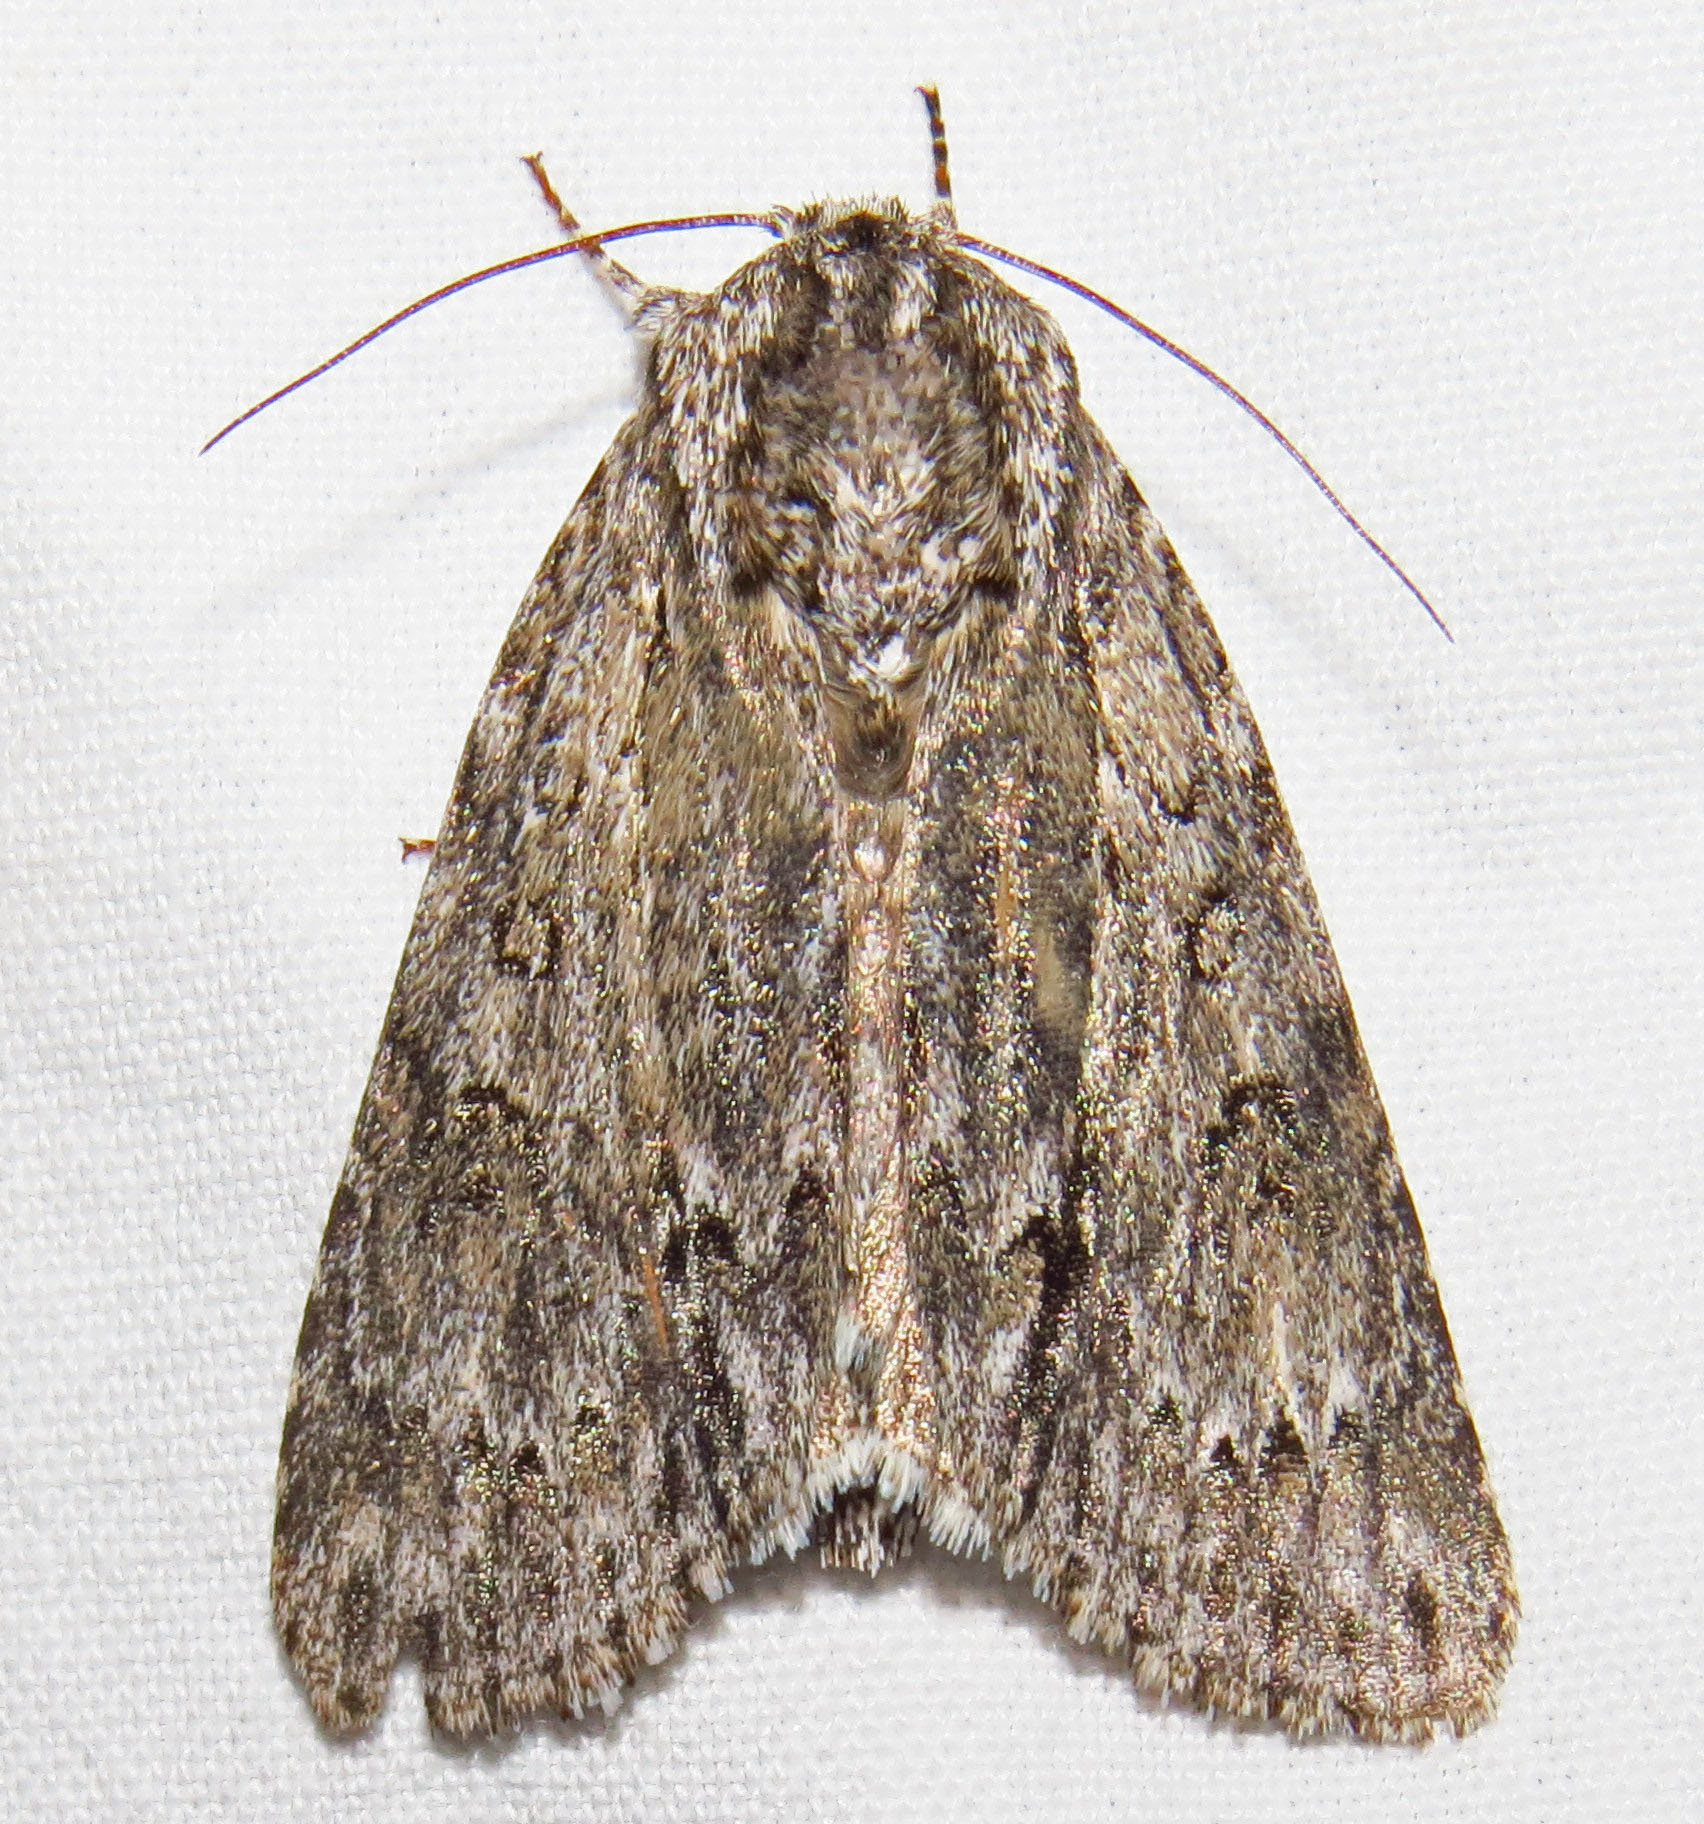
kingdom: Animalia
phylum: Arthropoda
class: Insecta
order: Lepidoptera
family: Noctuidae
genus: Acronicta
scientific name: Acronicta americana
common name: American dagger
